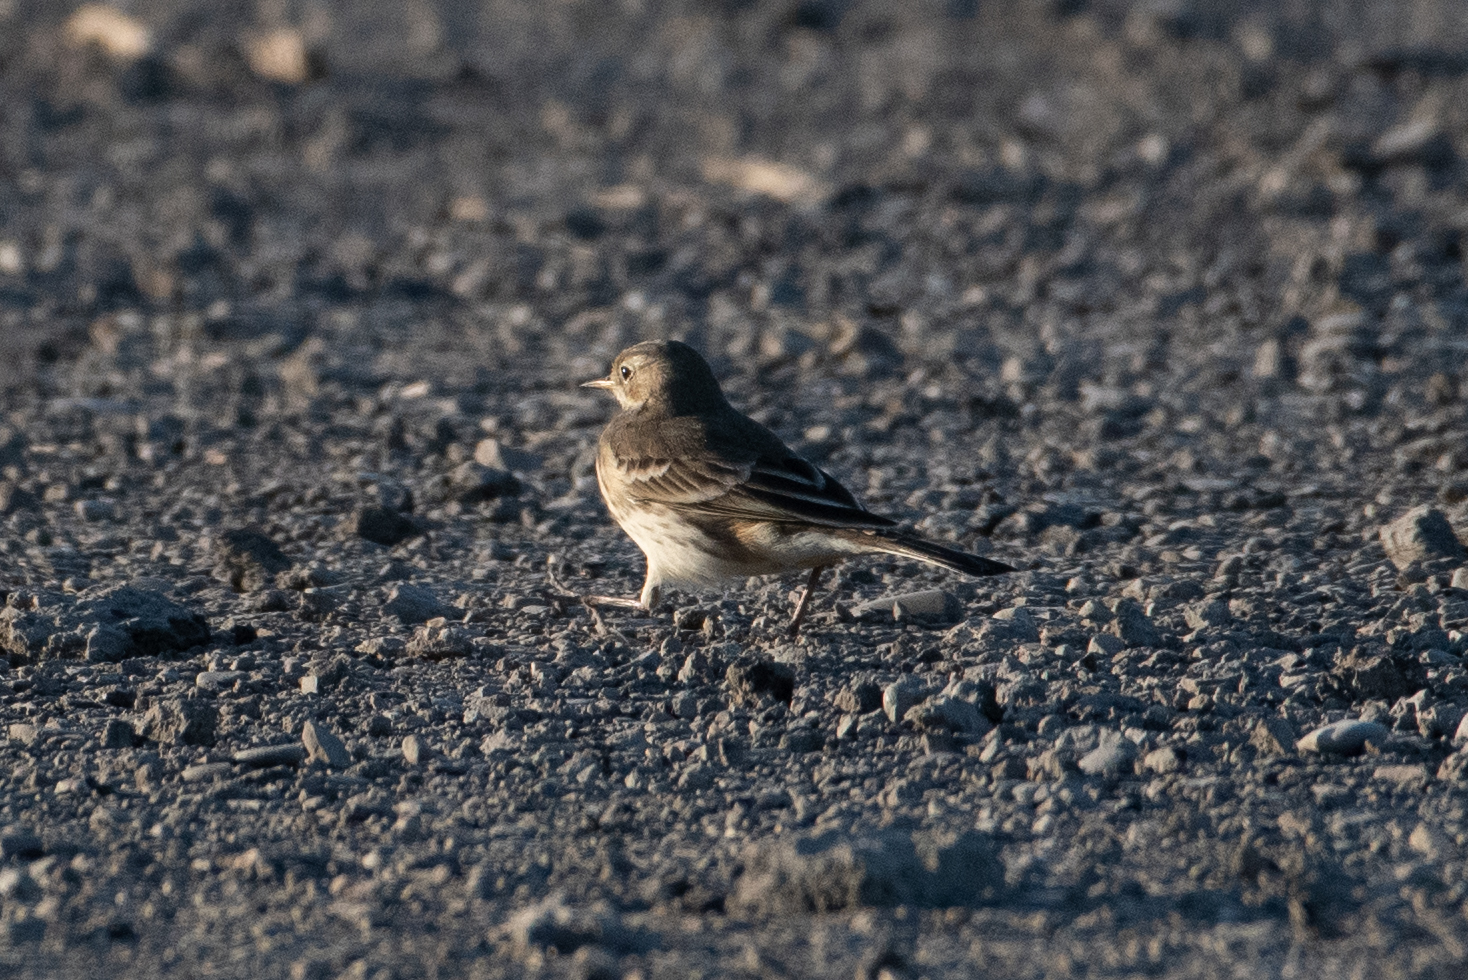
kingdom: Animalia
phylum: Chordata
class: Aves
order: Passeriformes
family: Motacillidae
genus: Anthus
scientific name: Anthus rubescens
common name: Buff-bellied pipit
